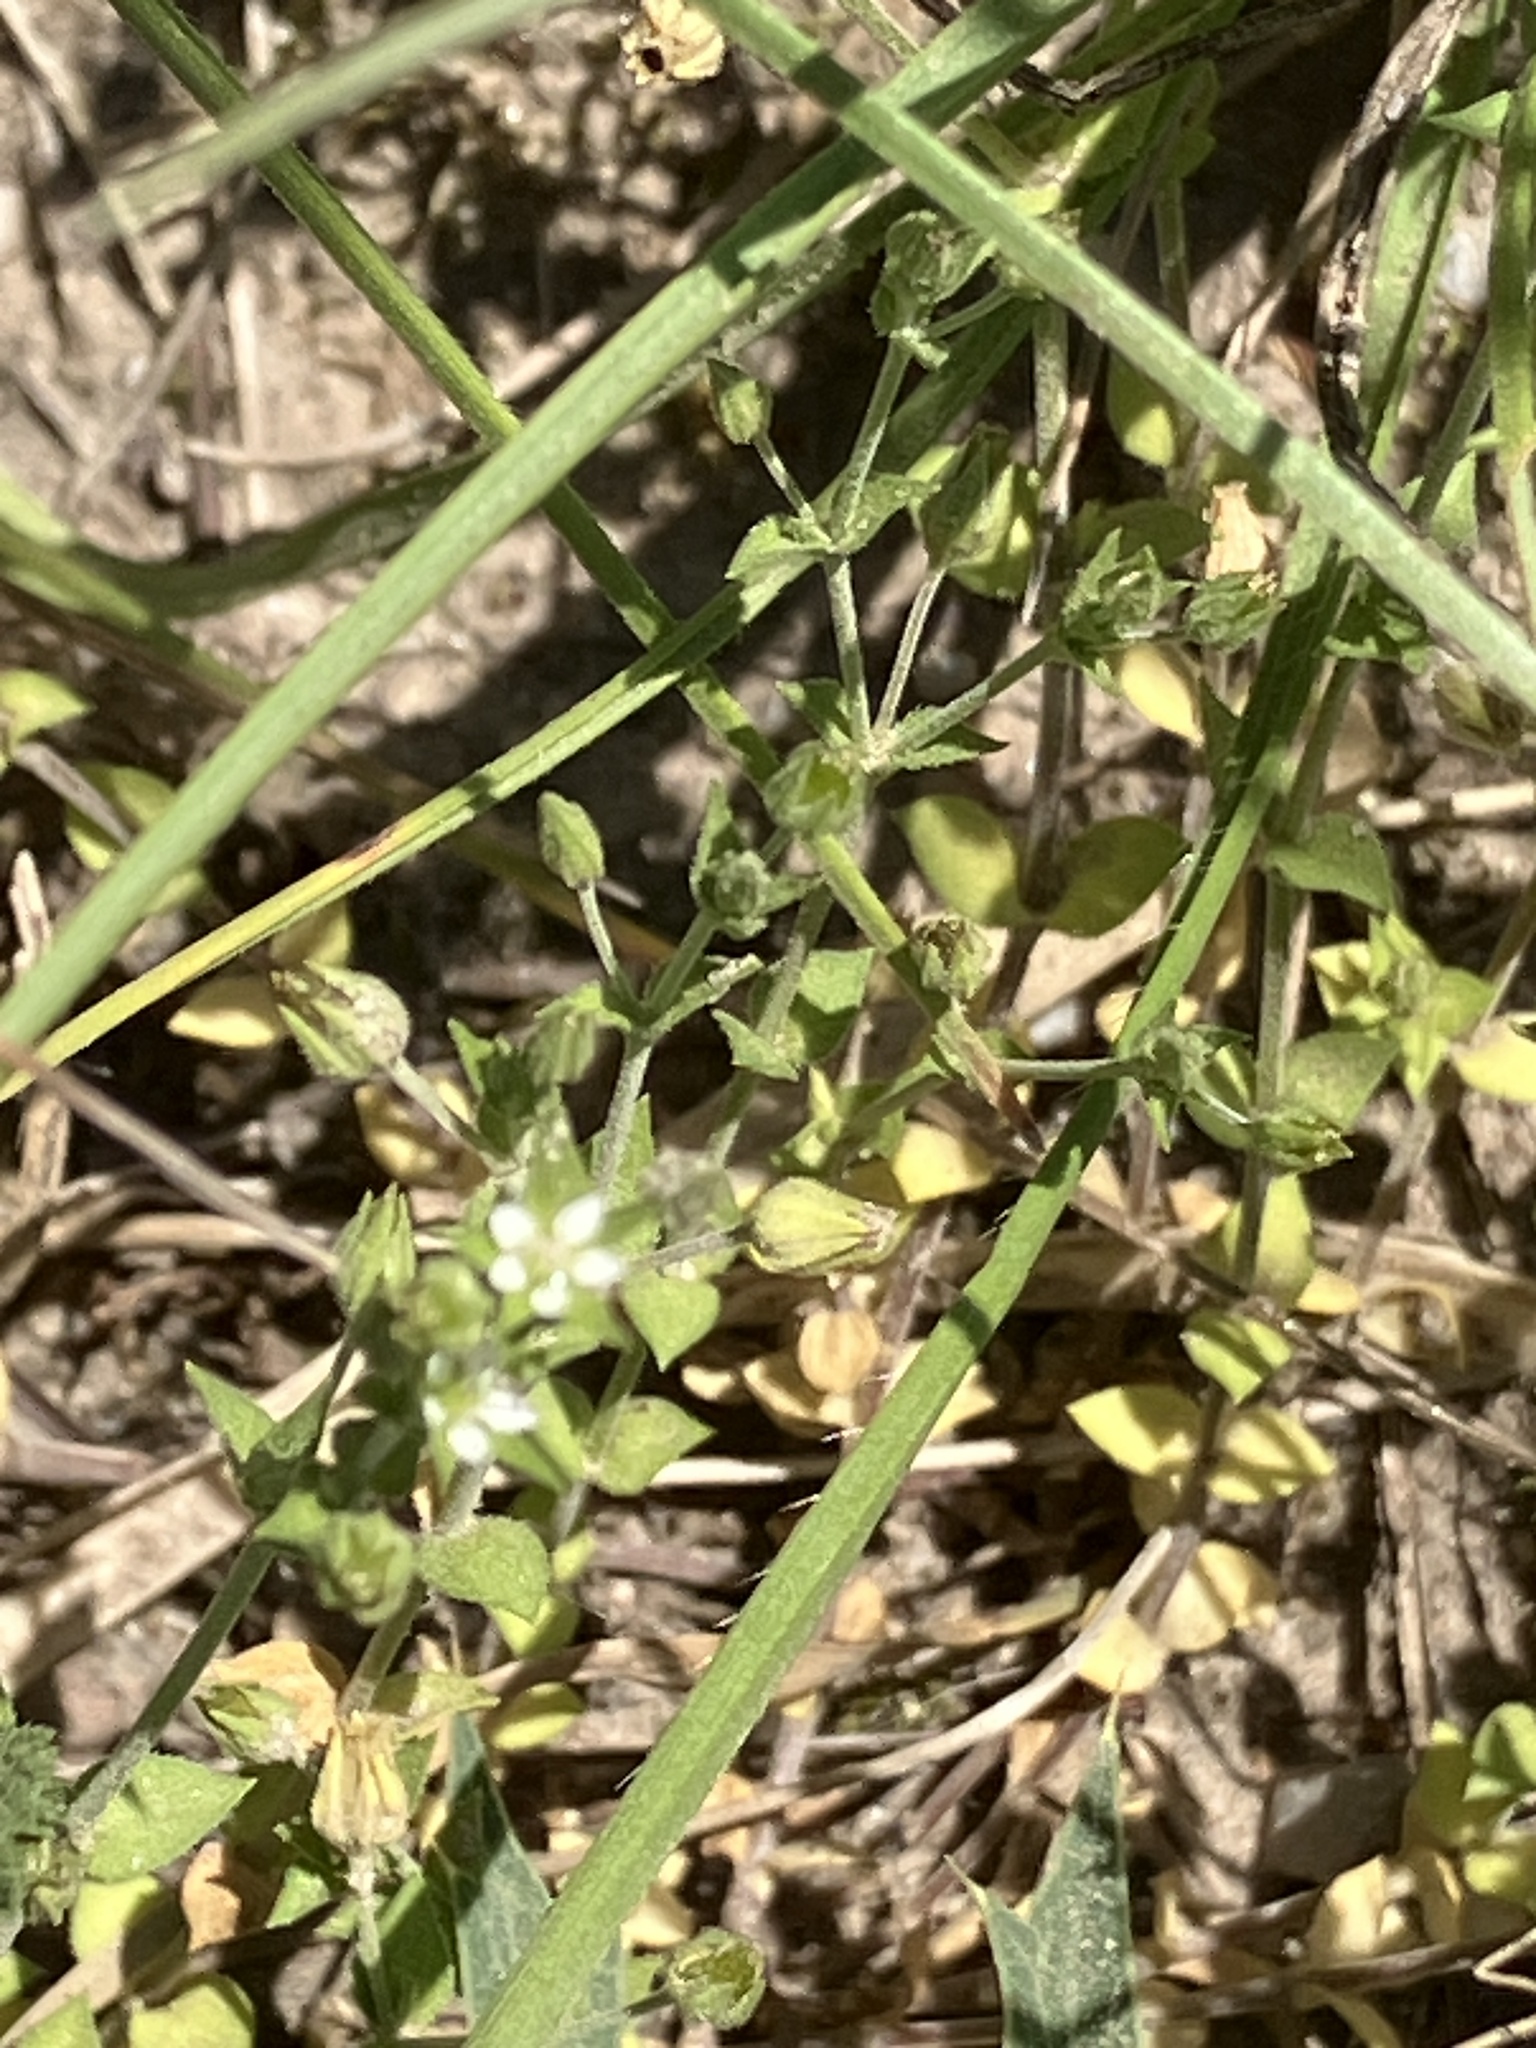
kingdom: Plantae
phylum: Tracheophyta
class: Magnoliopsida
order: Caryophyllales
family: Caryophyllaceae
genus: Arenaria
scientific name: Arenaria serpyllifolia
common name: Thyme-leaved sandwort
